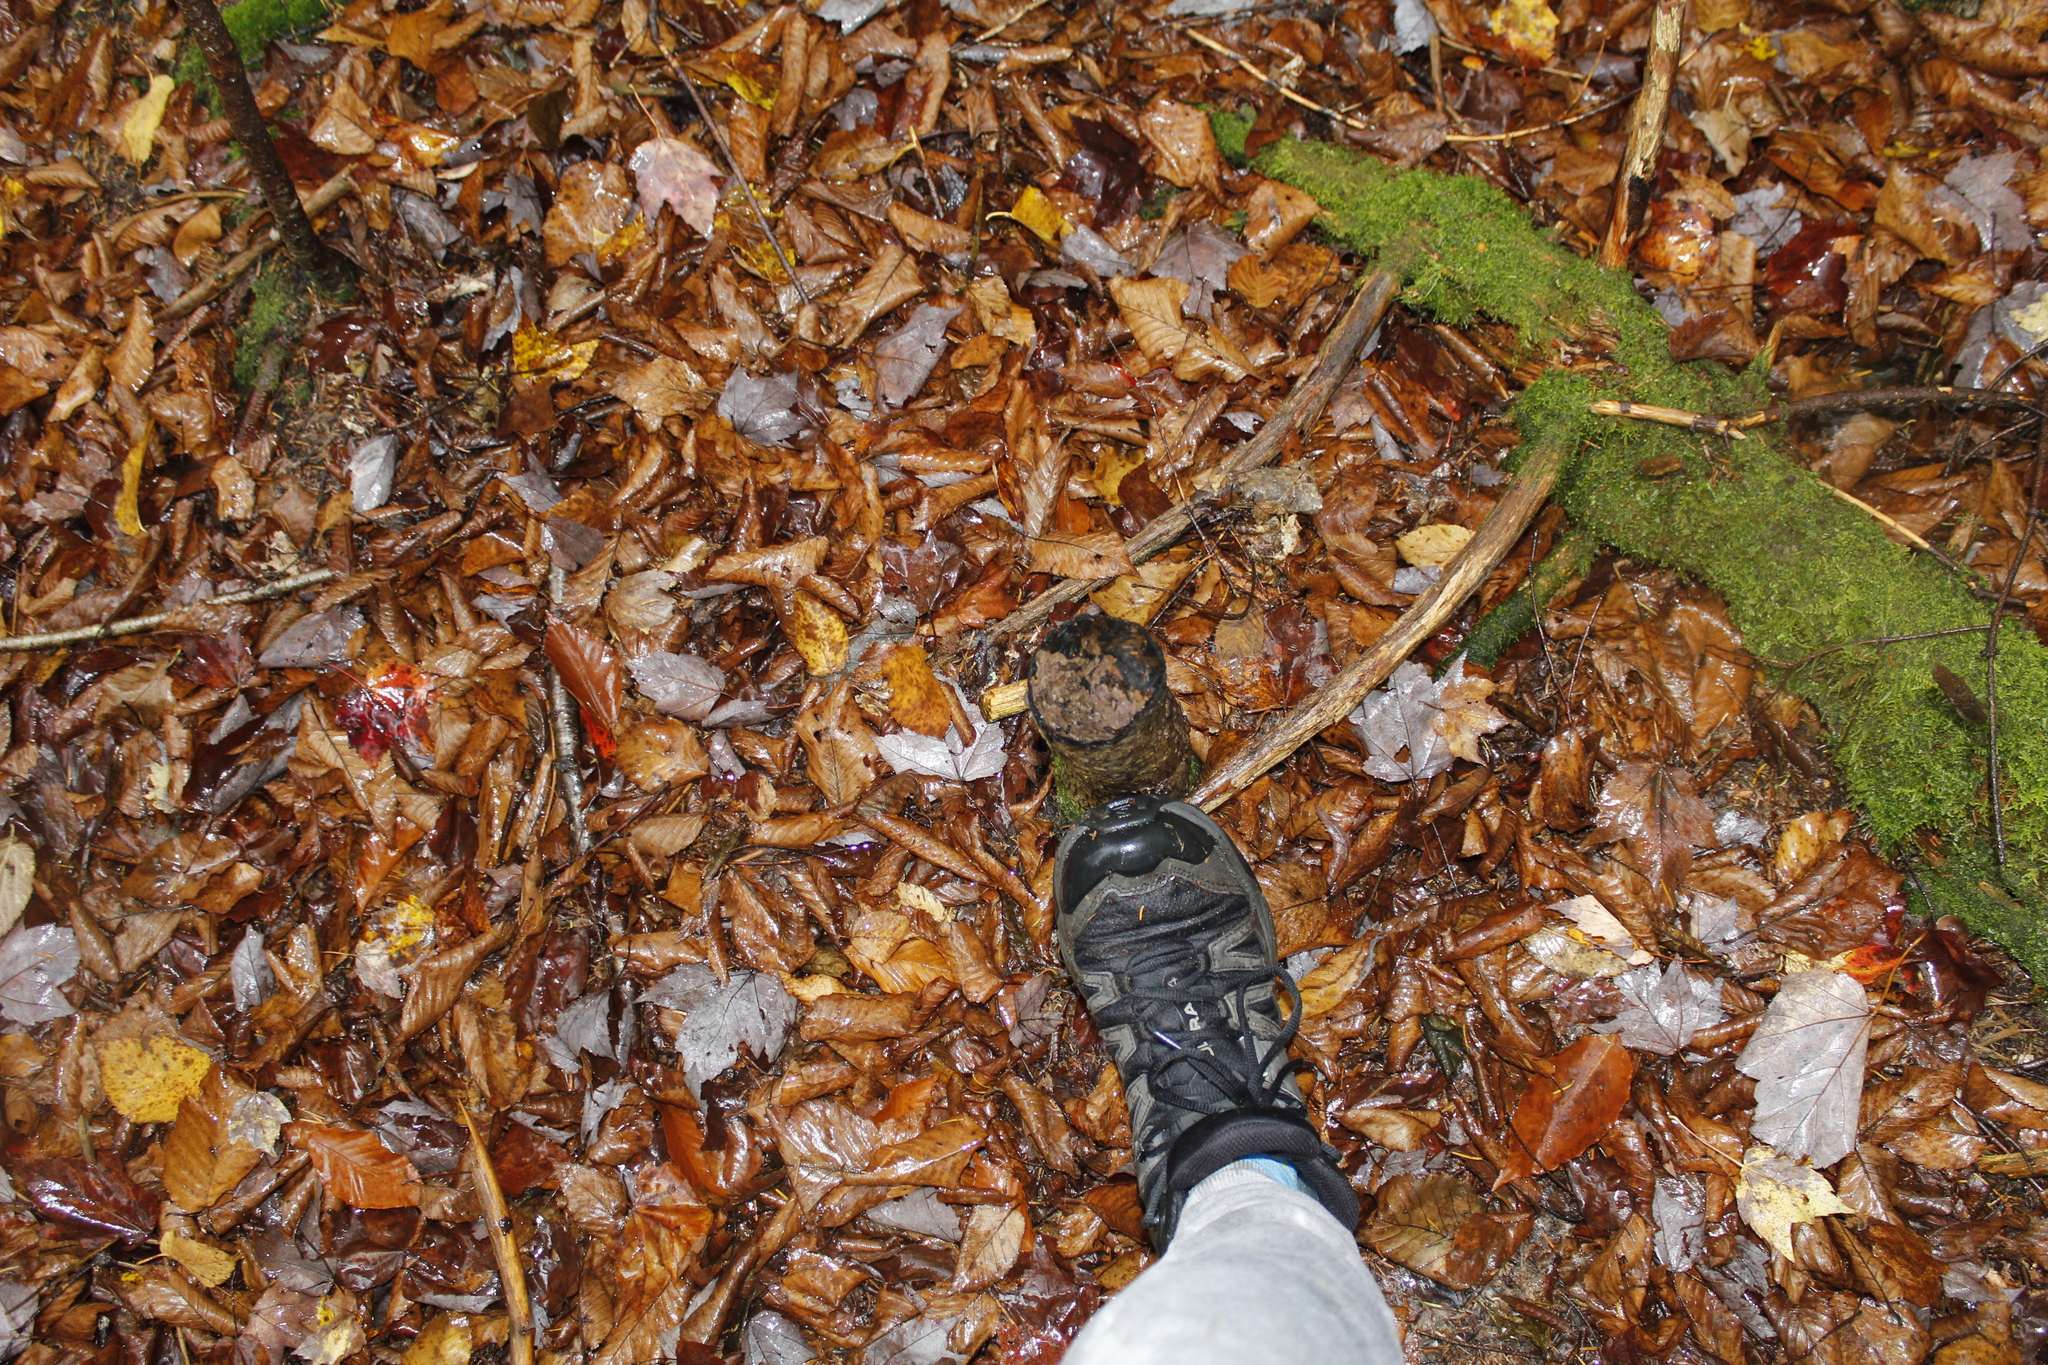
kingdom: Animalia
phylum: Chordata
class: Mammalia
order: Rodentia
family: Castoridae
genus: Castor
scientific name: Castor canadensis
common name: American beaver
